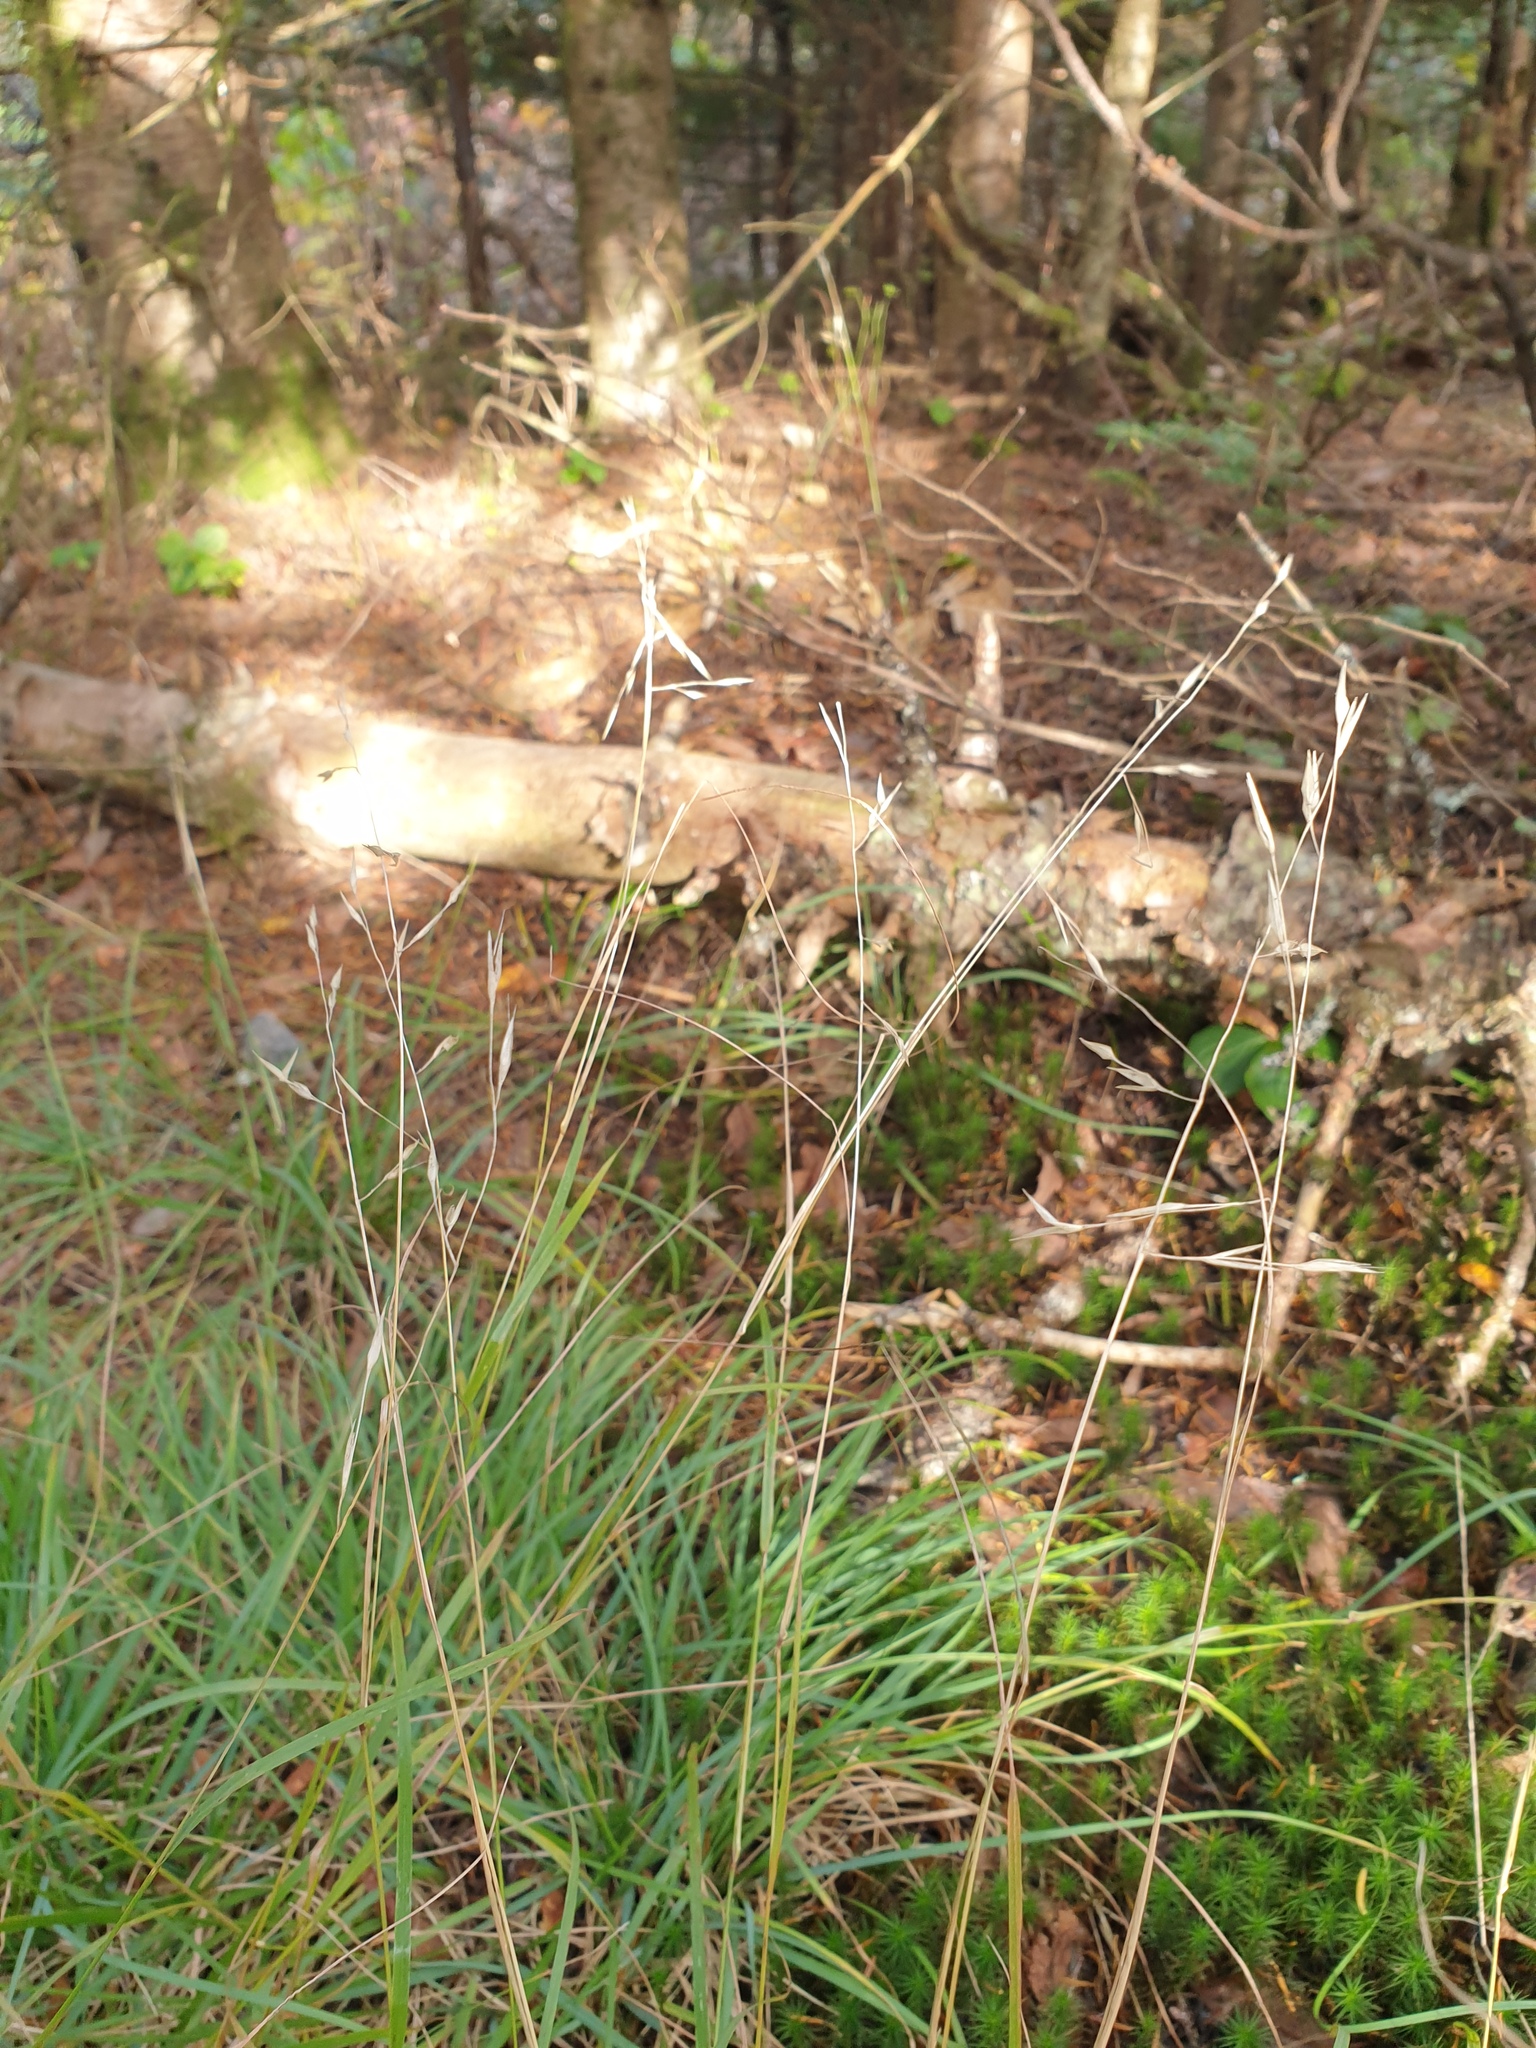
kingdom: Plantae
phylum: Tracheophyta
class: Liliopsida
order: Poales
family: Poaceae
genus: Danthonia
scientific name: Danthonia compressa
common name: Flat-stem oat grass
